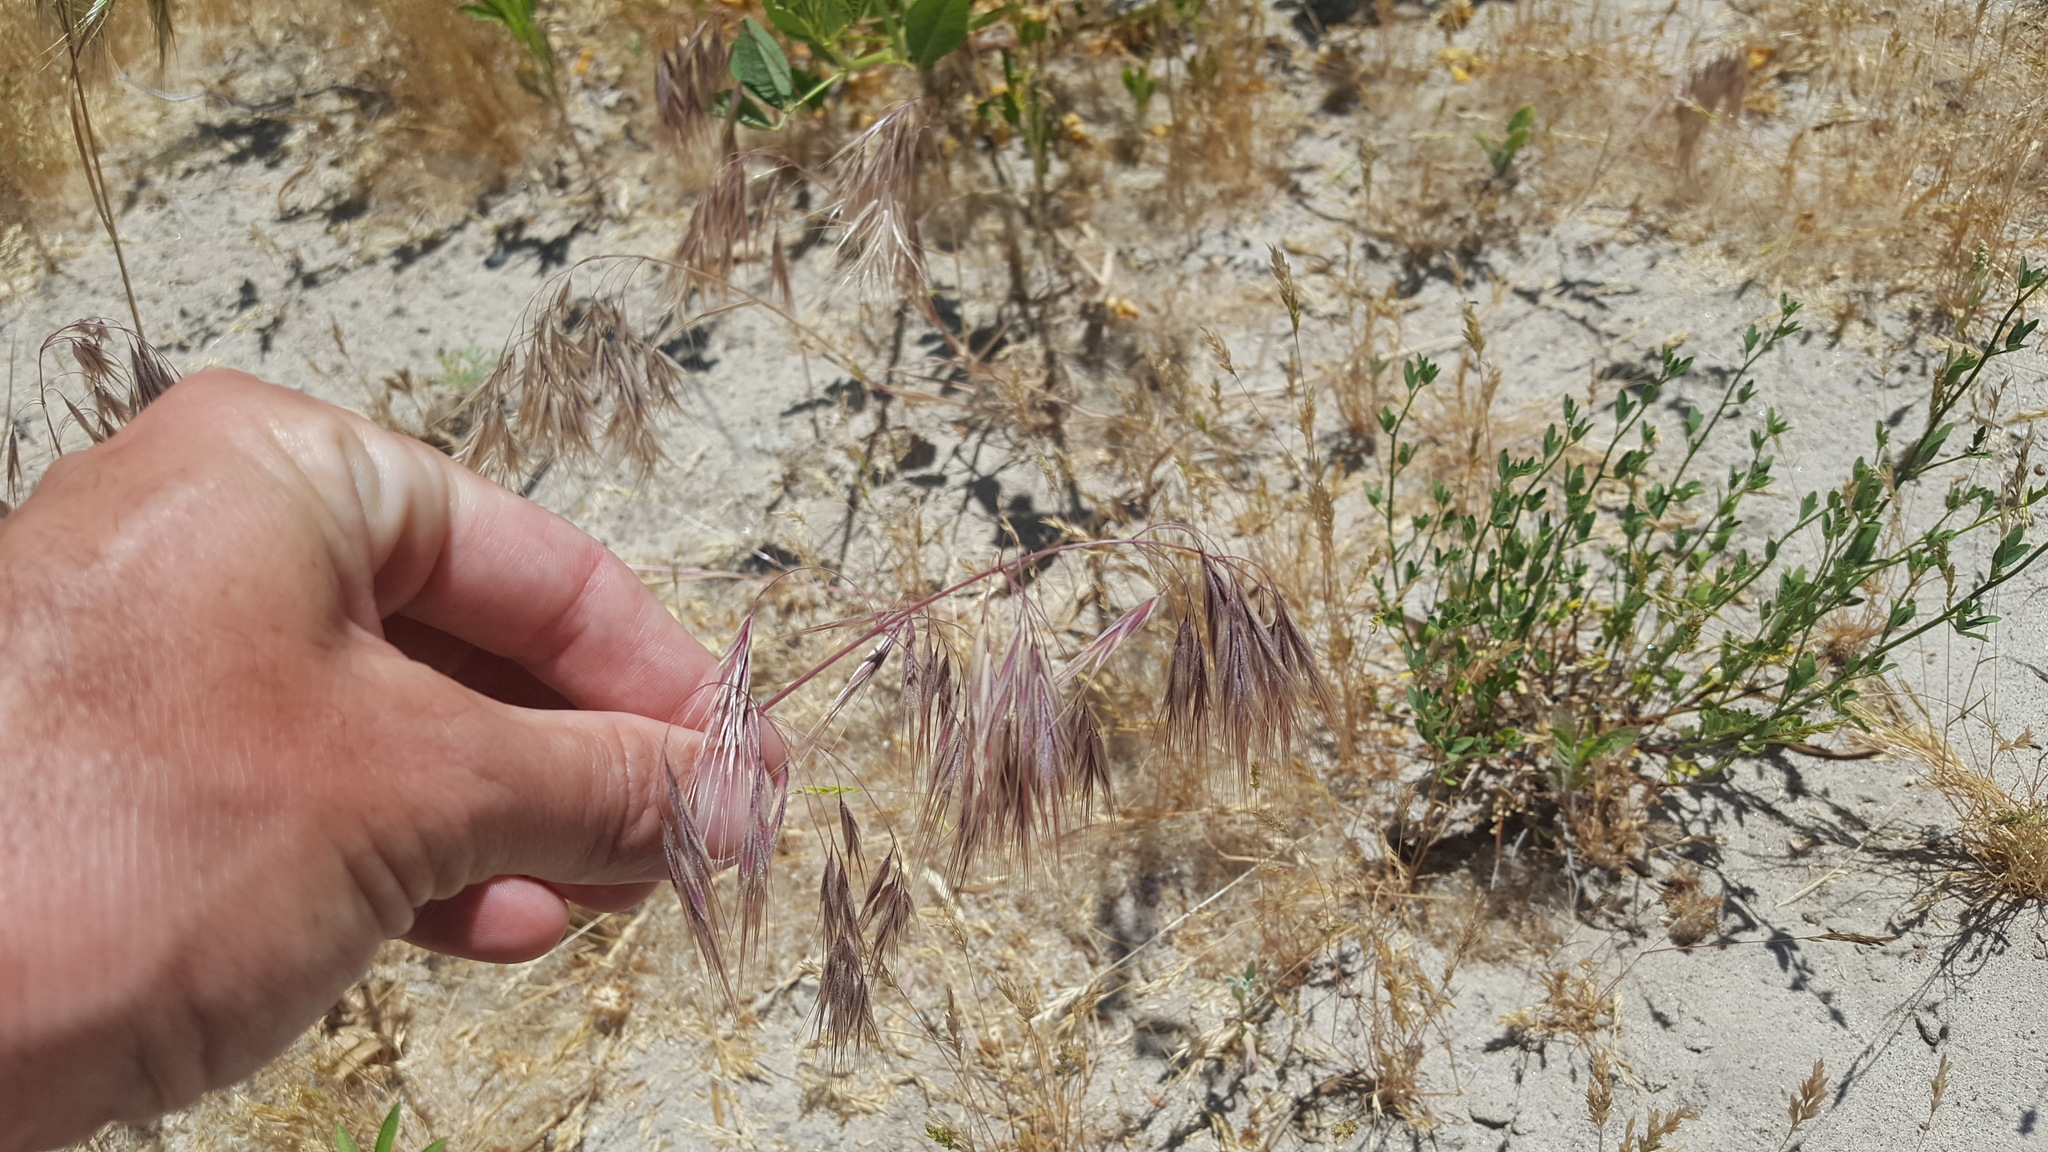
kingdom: Plantae
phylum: Tracheophyta
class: Liliopsida
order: Poales
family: Poaceae
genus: Bromus
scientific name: Bromus tectorum
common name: Cheatgrass
